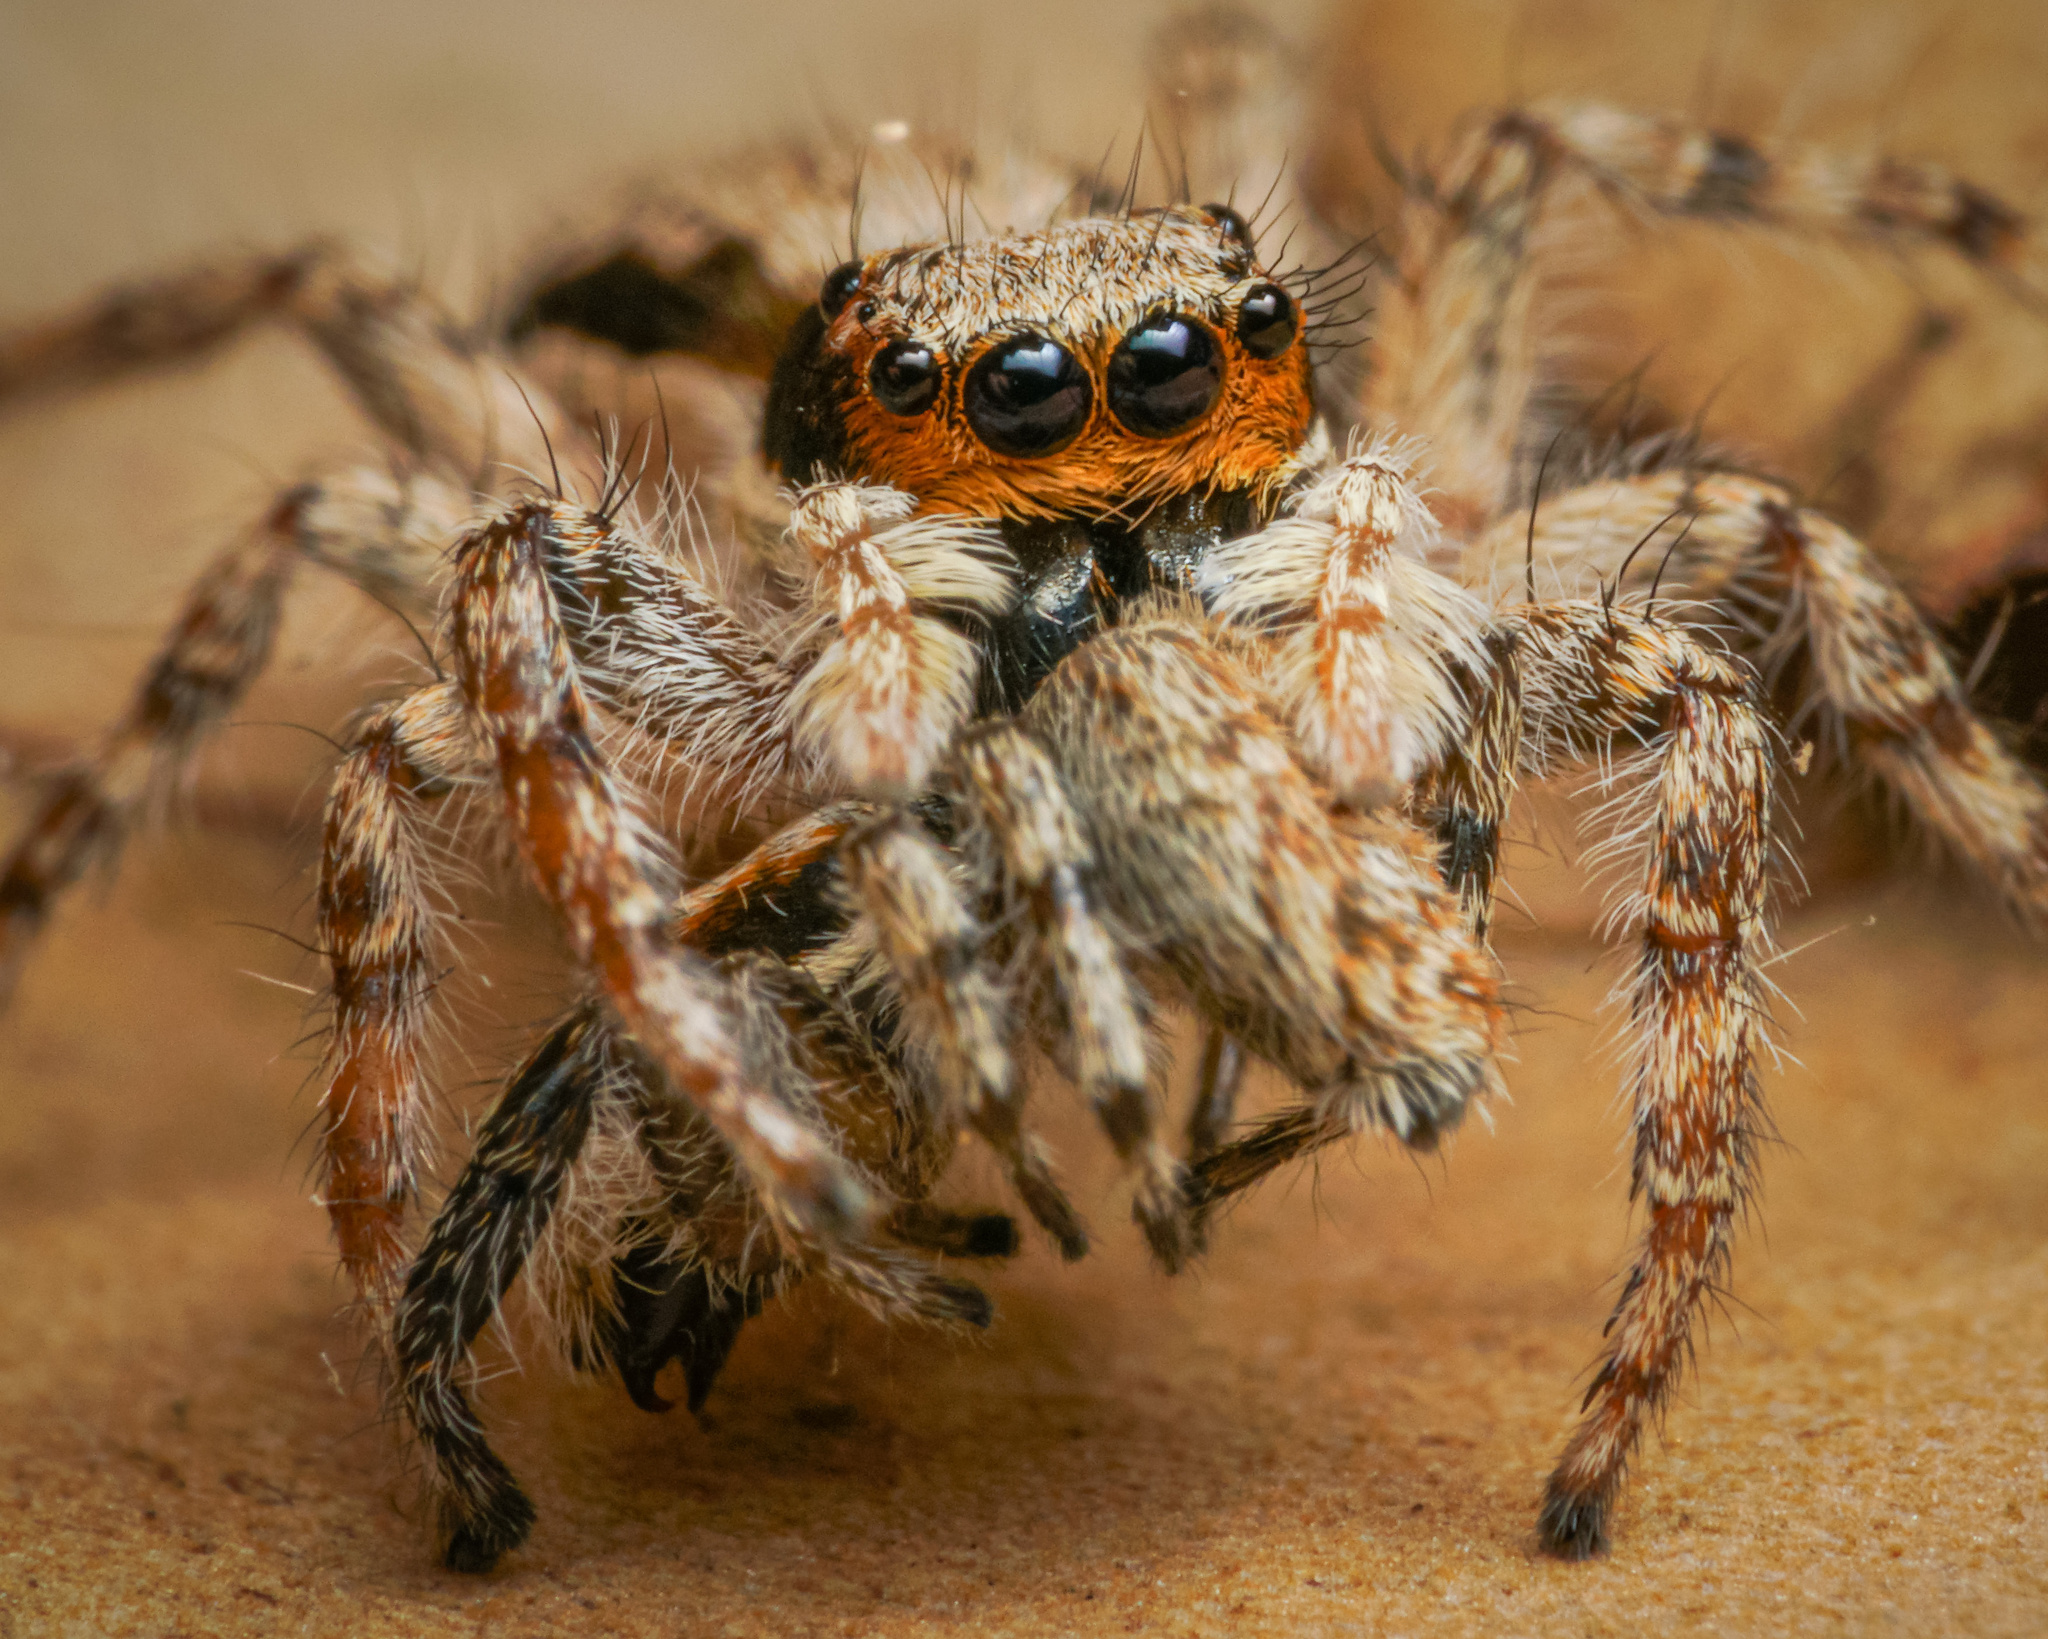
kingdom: Animalia
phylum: Arthropoda
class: Arachnida
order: Araneae
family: Salticidae
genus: Menemerus
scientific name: Menemerus bivittatus
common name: Gray wall jumper
